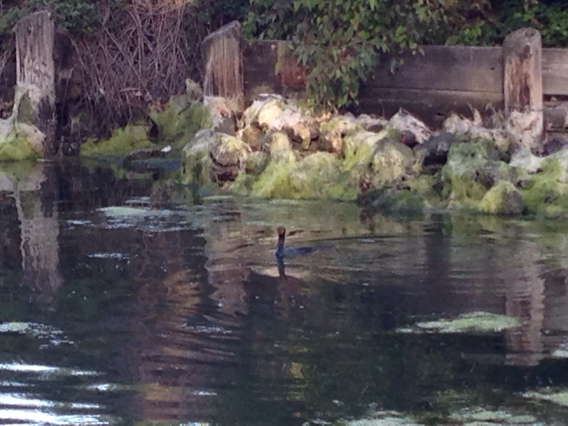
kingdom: Animalia
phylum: Chordata
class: Aves
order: Suliformes
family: Phalacrocoracidae
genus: Phalacrocorax
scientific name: Phalacrocorax auritus
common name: Double-crested cormorant
